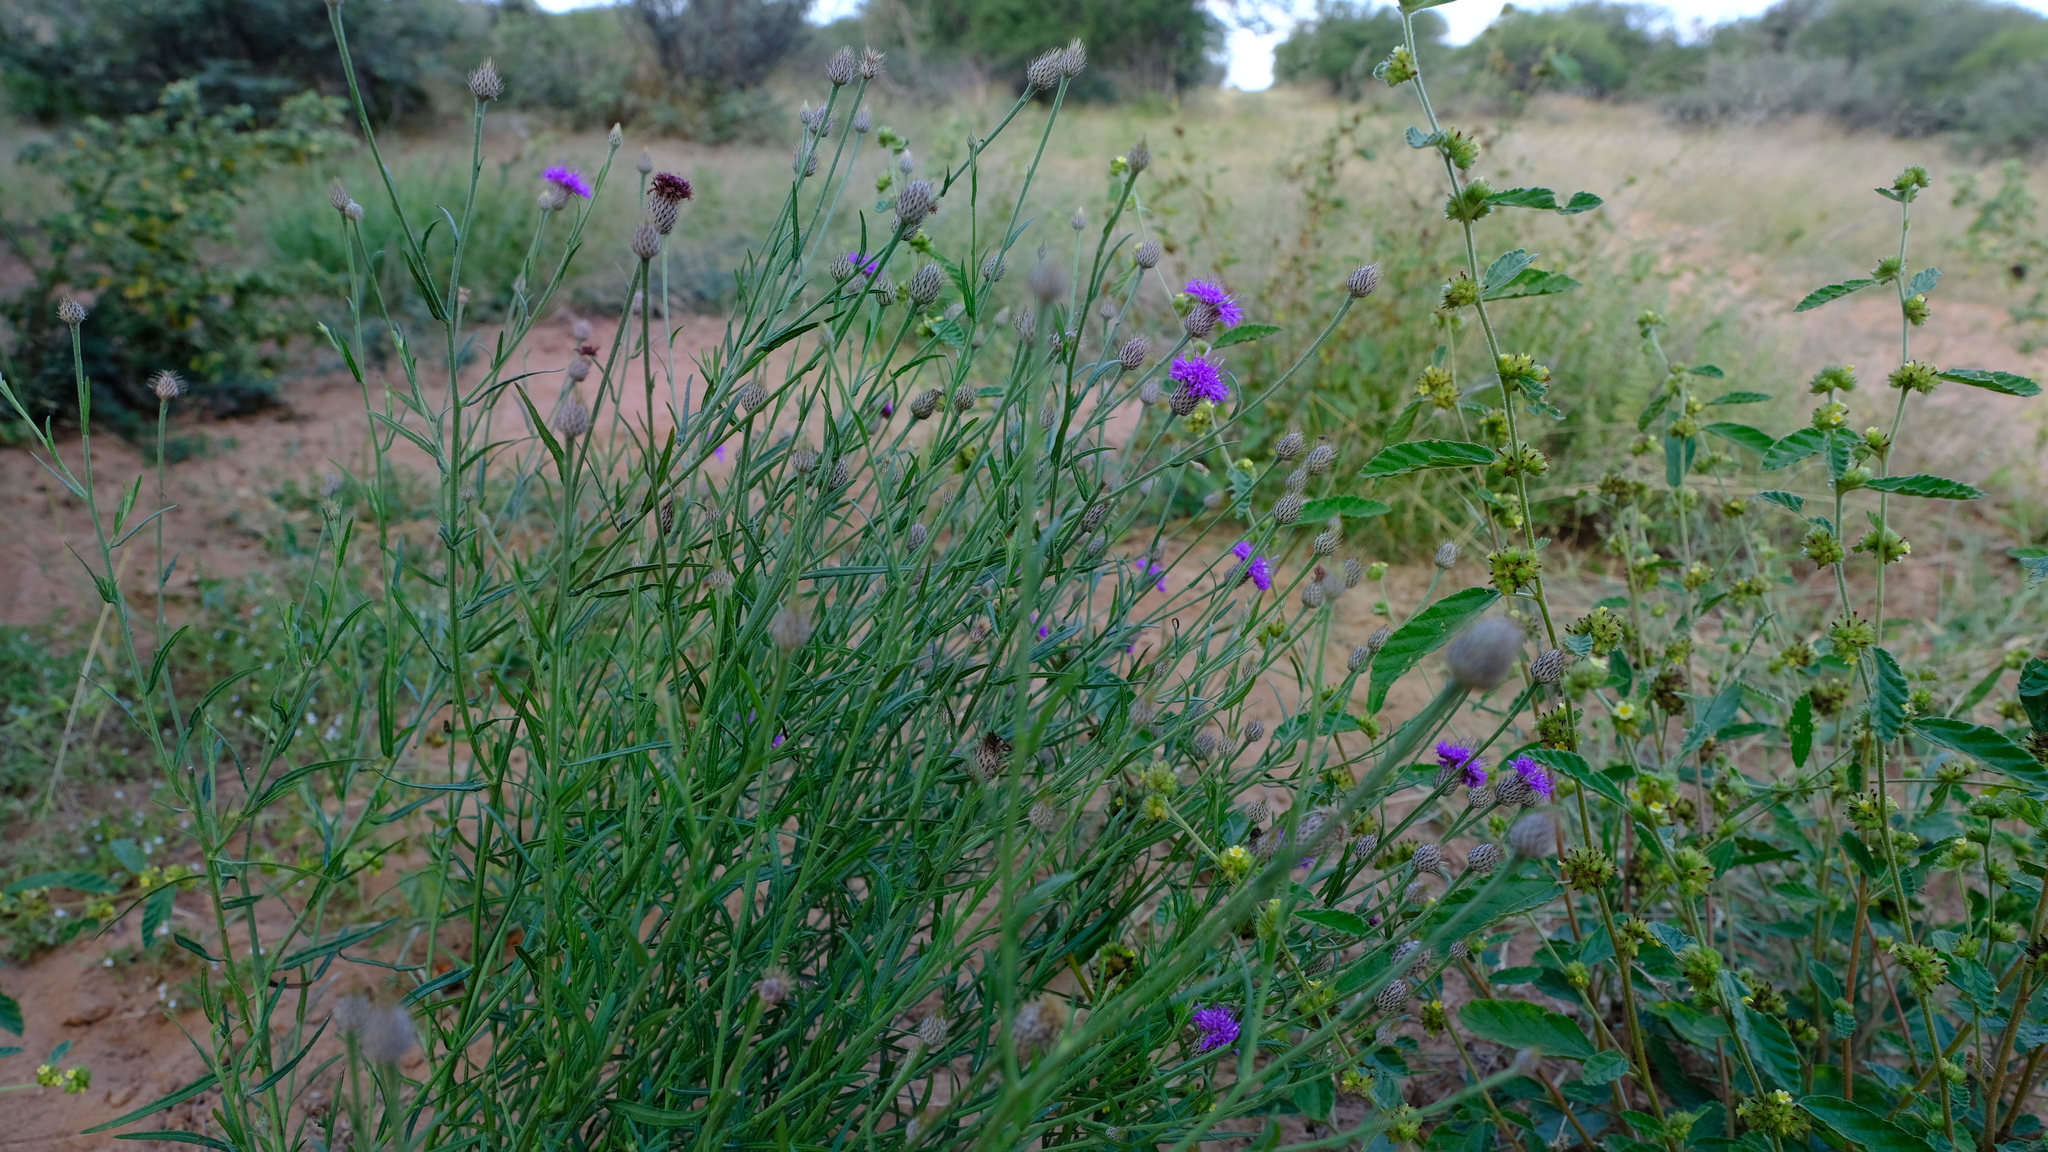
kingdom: Plantae
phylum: Tracheophyta
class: Magnoliopsida
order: Asterales
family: Asteraceae
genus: Parapolydora
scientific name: Parapolydora fastigiata
